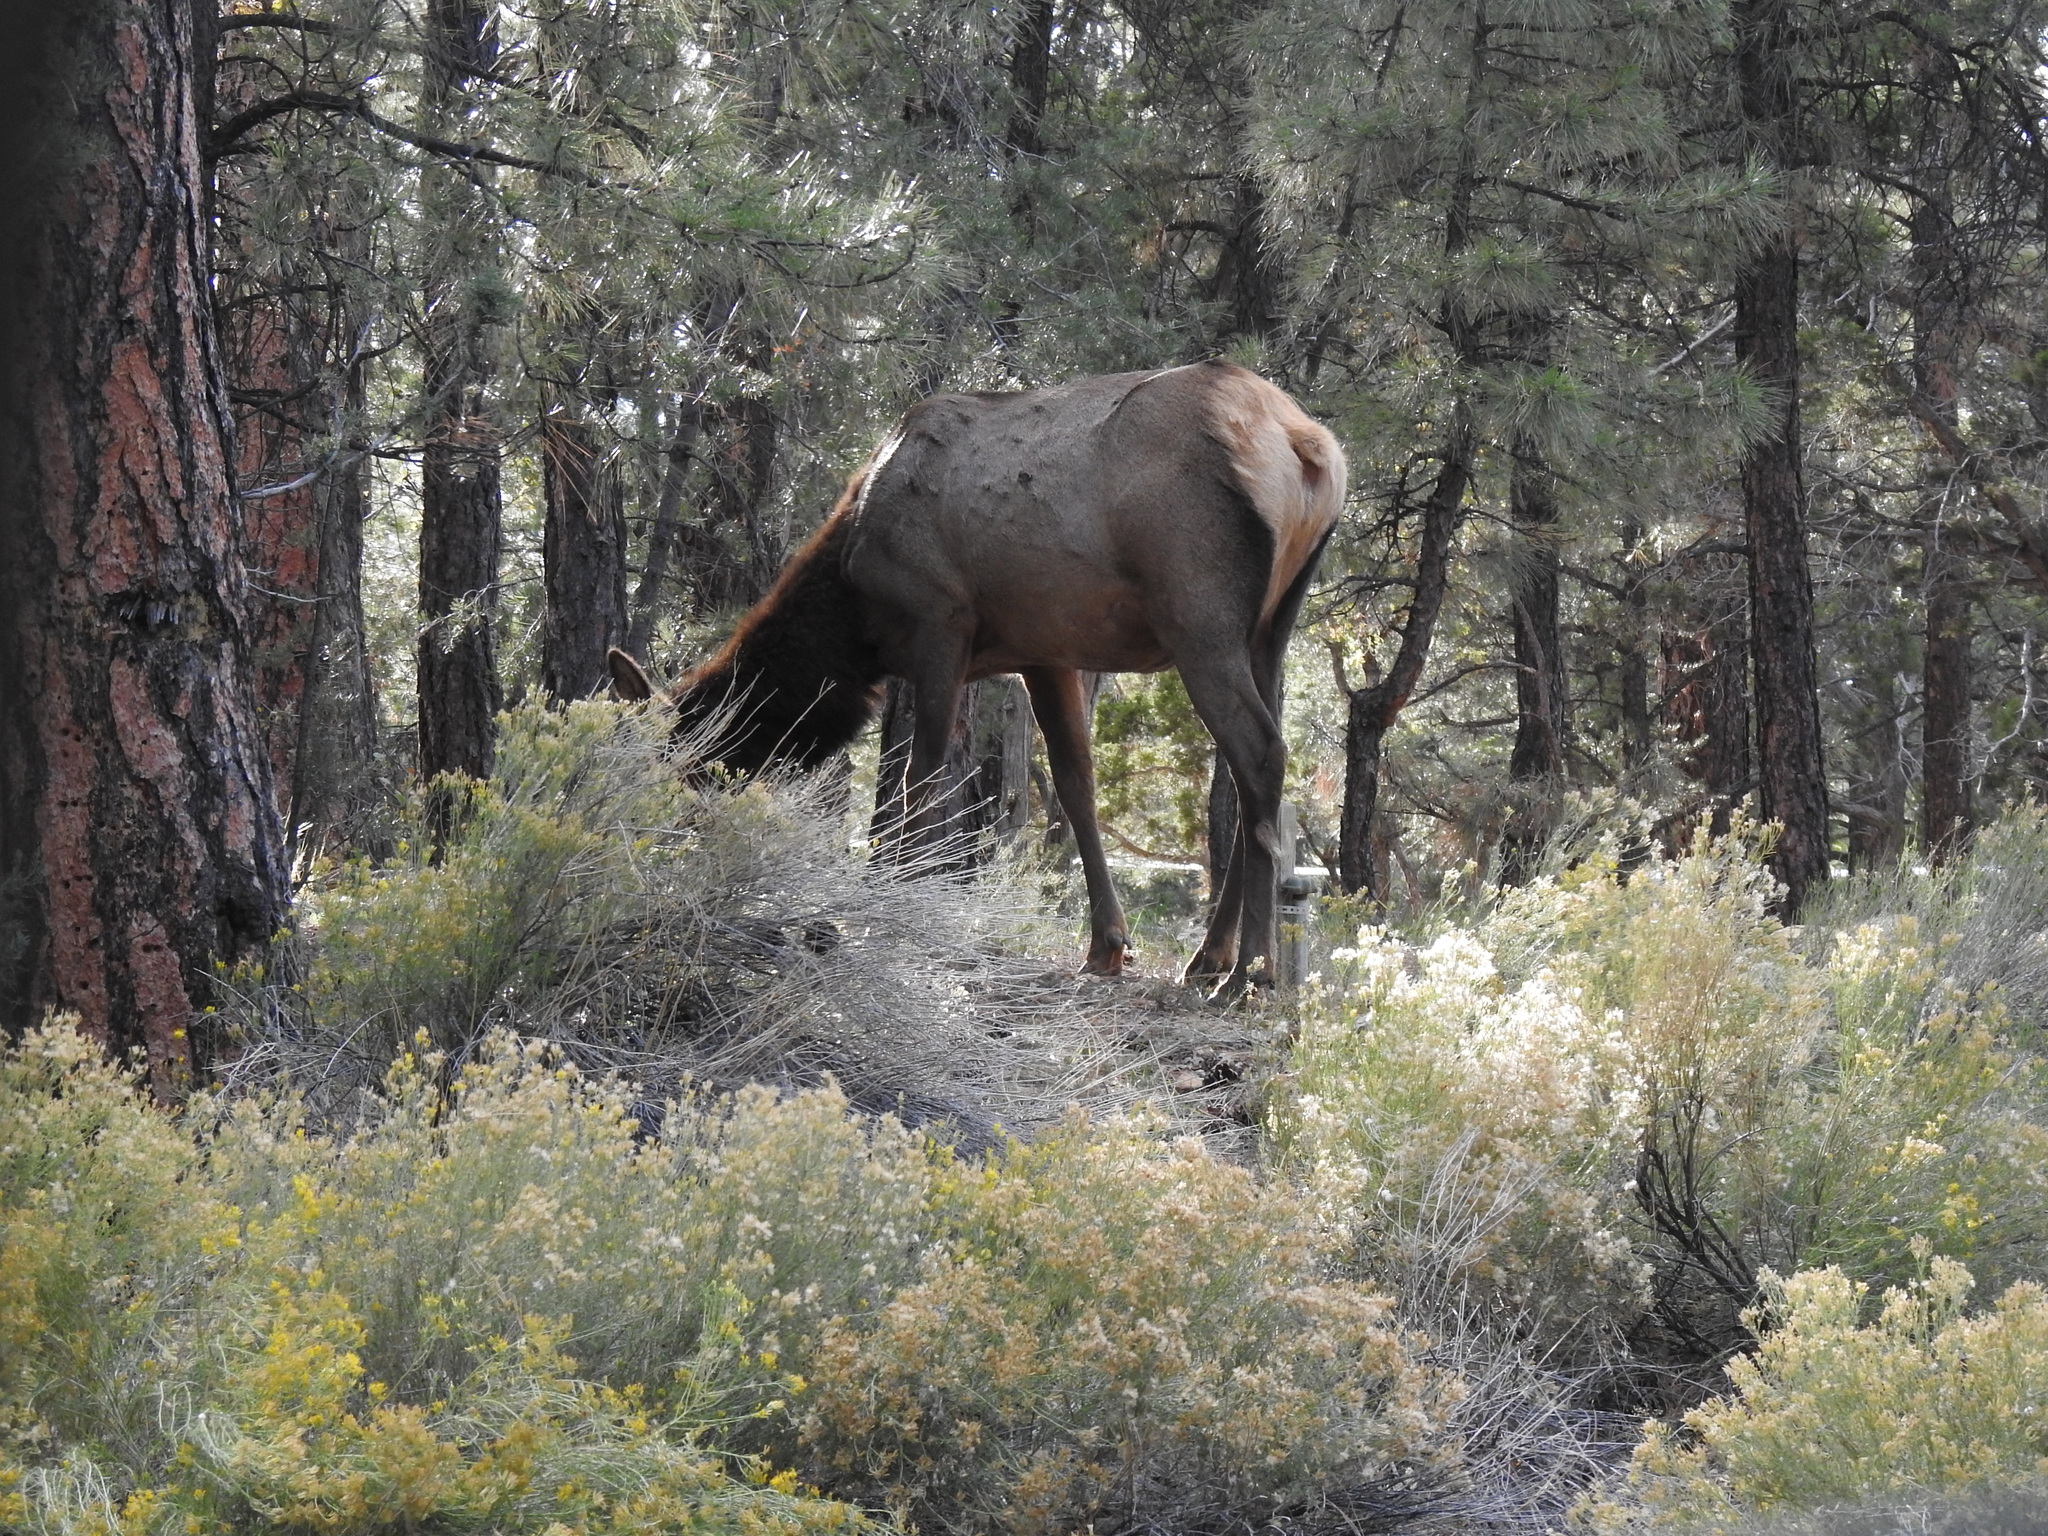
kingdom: Animalia
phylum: Chordata
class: Mammalia
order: Artiodactyla
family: Cervidae
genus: Cervus
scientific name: Cervus elaphus
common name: Red deer
